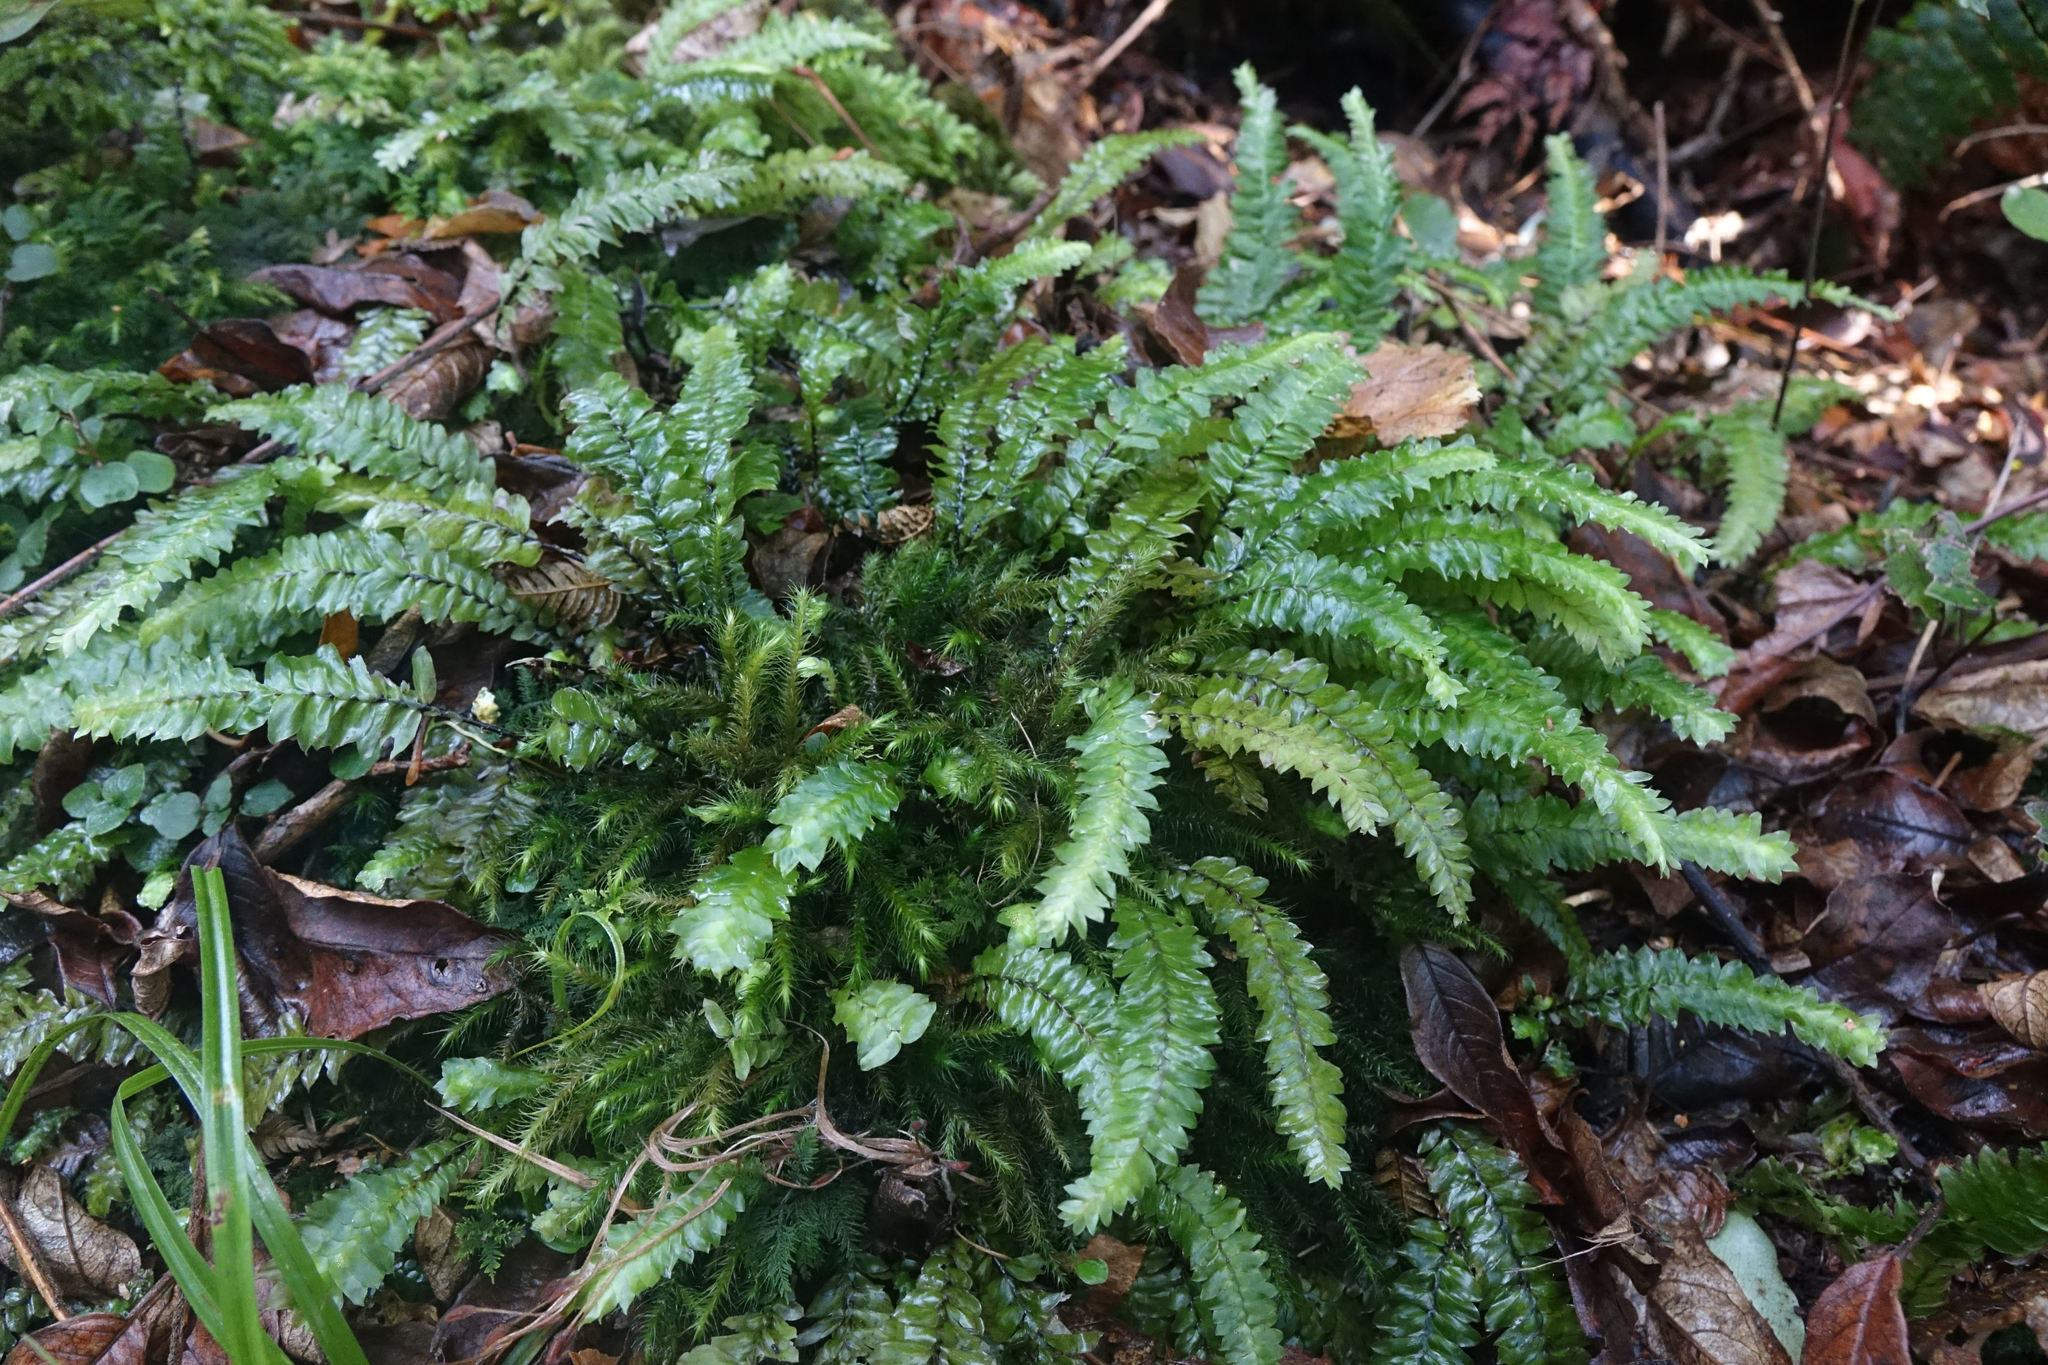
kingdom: Plantae
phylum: Bryophyta
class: Bryopsida
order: Hypopterygiales
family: Hypopterygiaceae
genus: Cyathophorum
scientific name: Cyathophorum bulbosum
